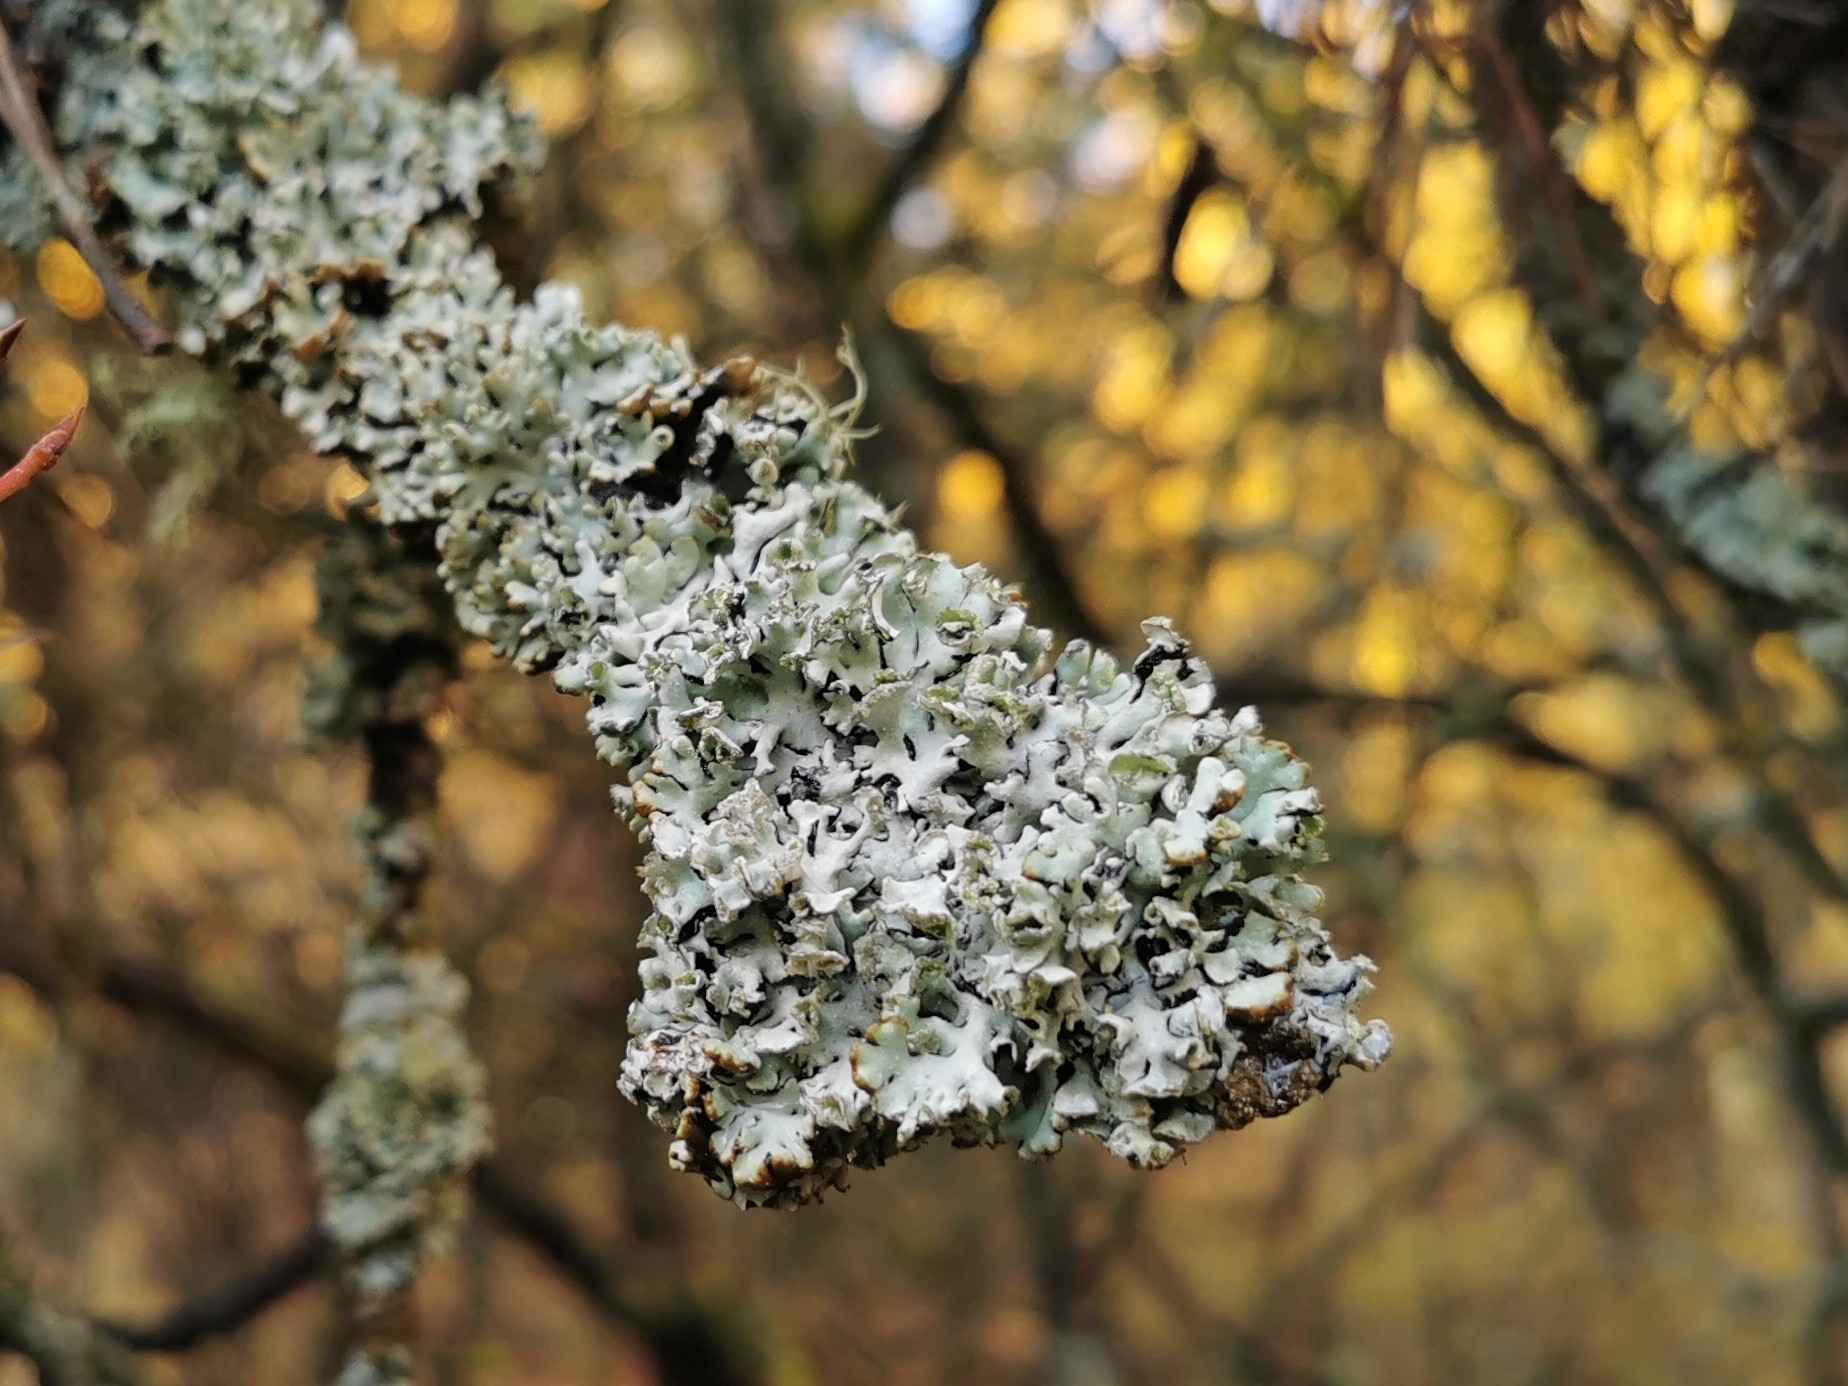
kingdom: Fungi
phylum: Ascomycota
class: Lecanoromycetes
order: Lecanorales
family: Parmeliaceae
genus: Hypogymnia
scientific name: Hypogymnia physodes
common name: Dark crottle
